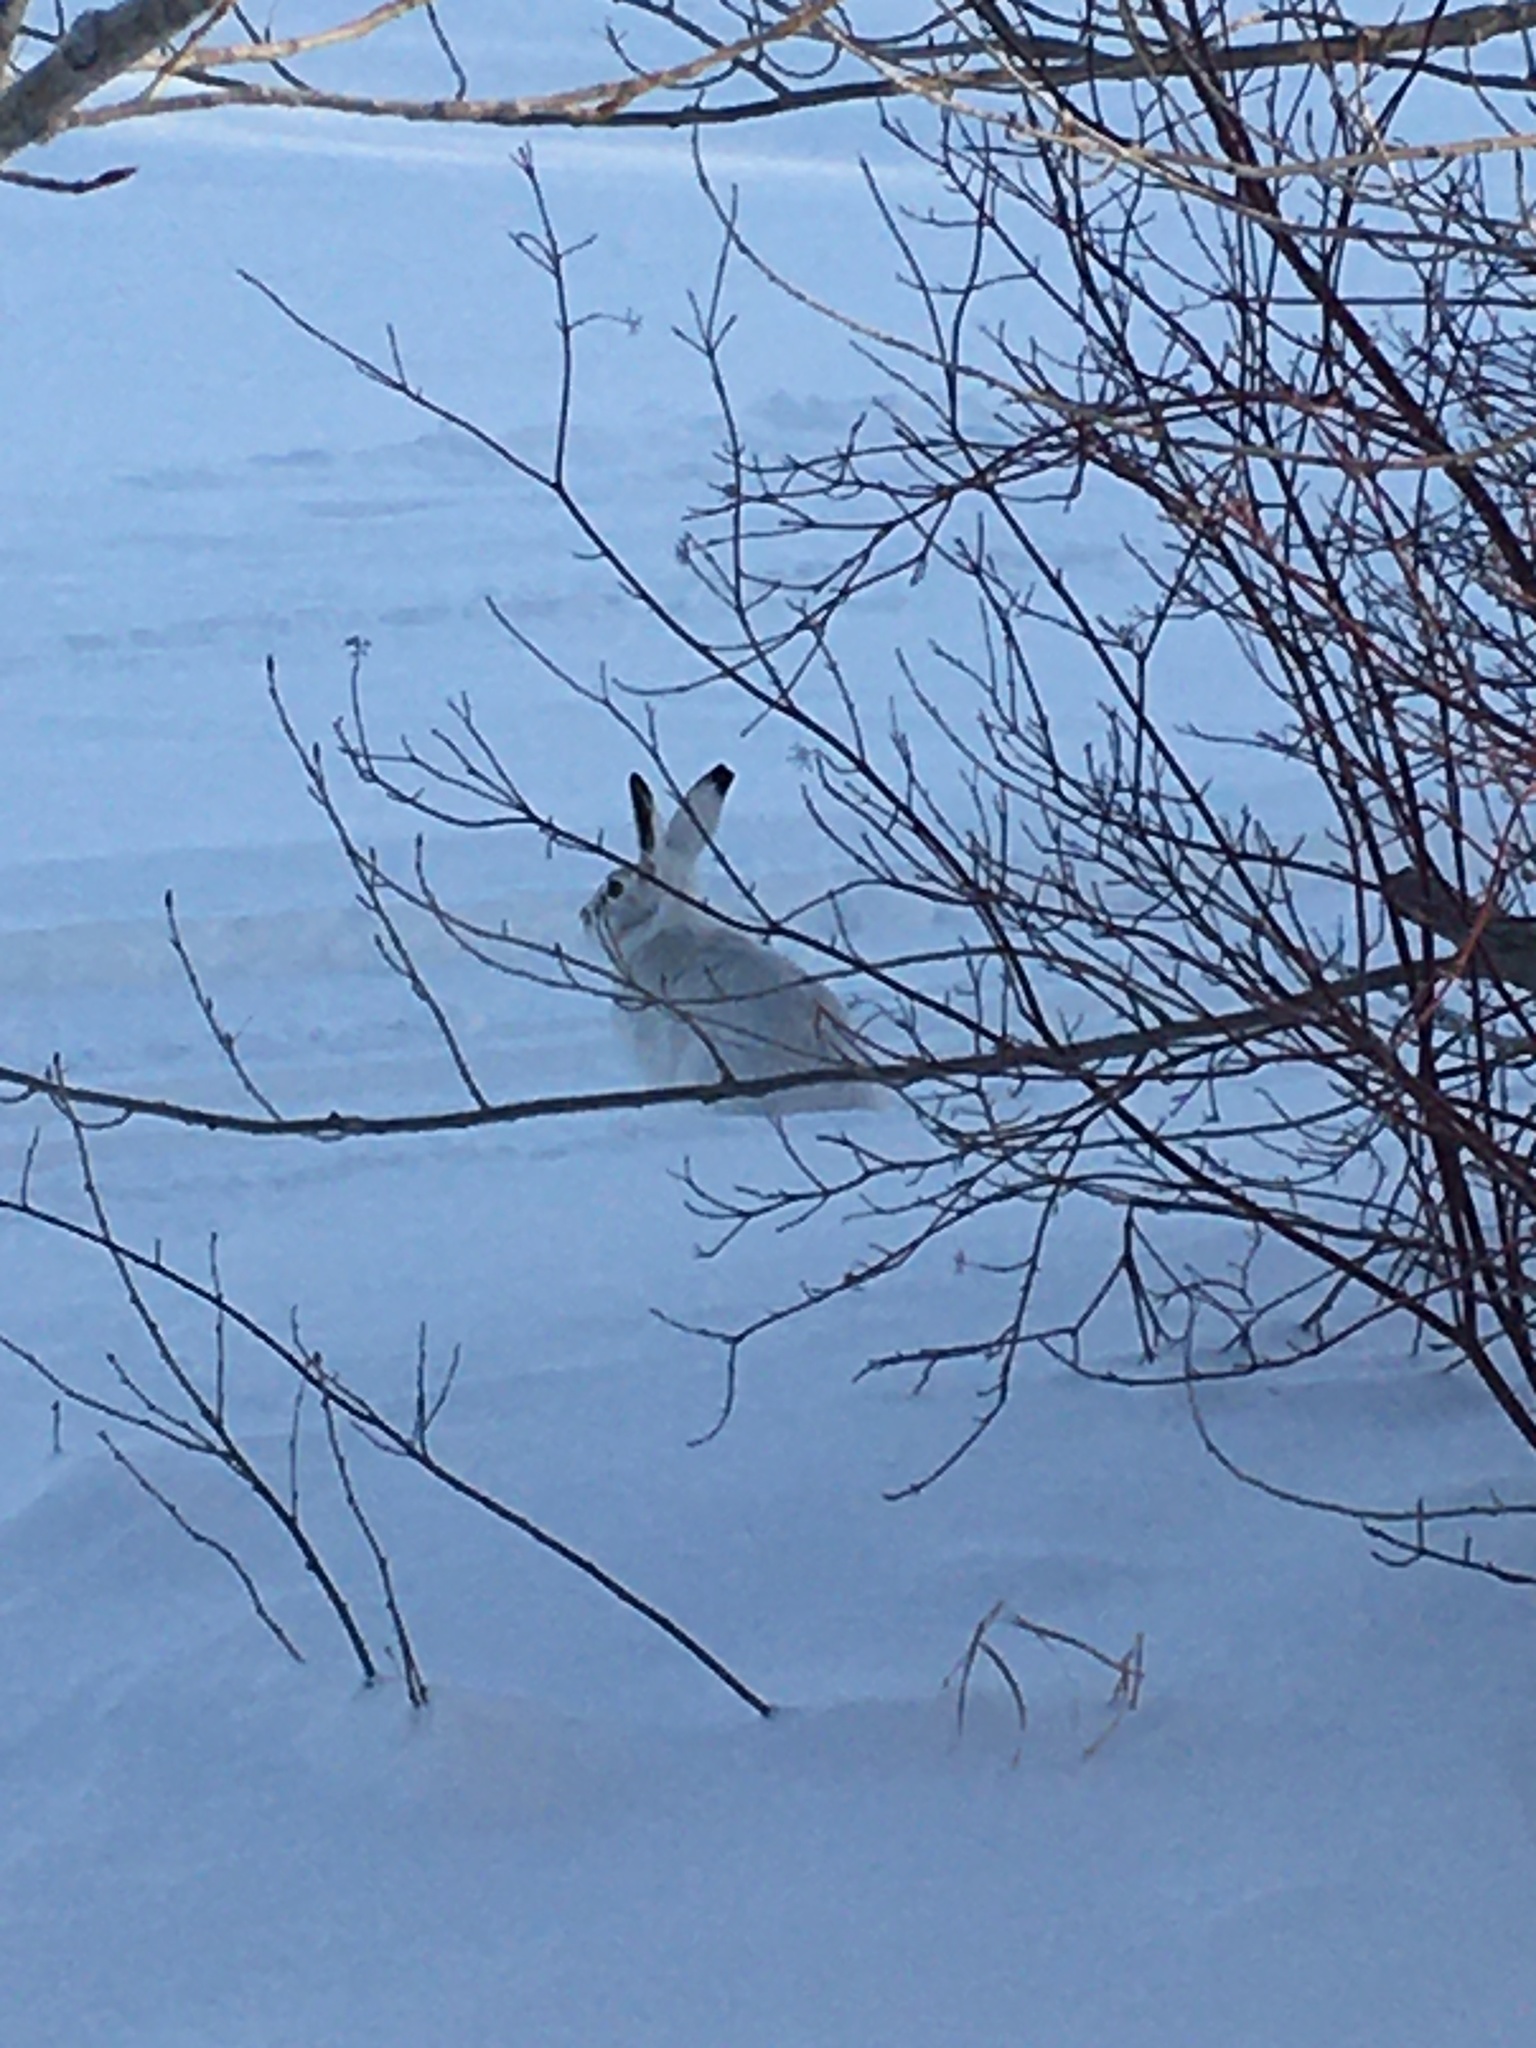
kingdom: Animalia
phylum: Chordata
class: Mammalia
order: Lagomorpha
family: Leporidae
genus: Lepus
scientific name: Lepus townsendii
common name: White-tailed jackrabbit
